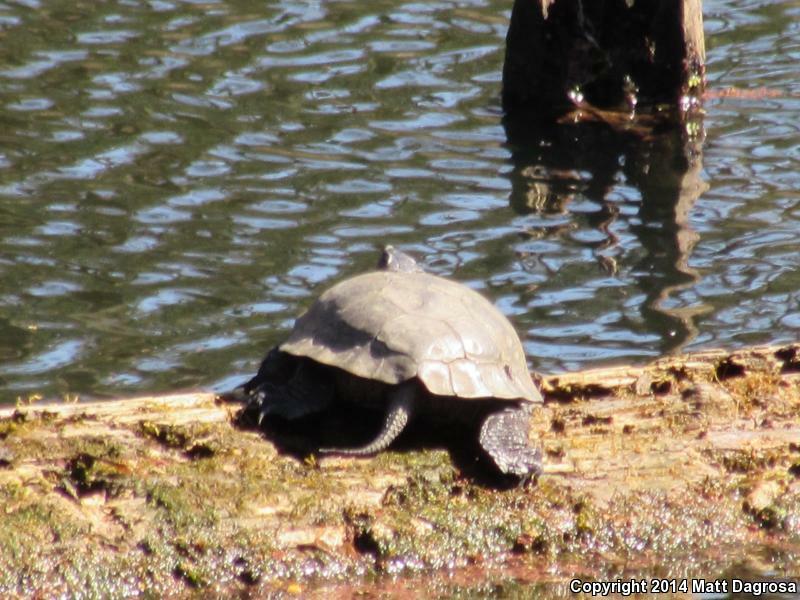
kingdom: Animalia
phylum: Chordata
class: Testudines
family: Emydidae
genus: Actinemys
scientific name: Actinemys marmorata
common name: Western pond turtle
